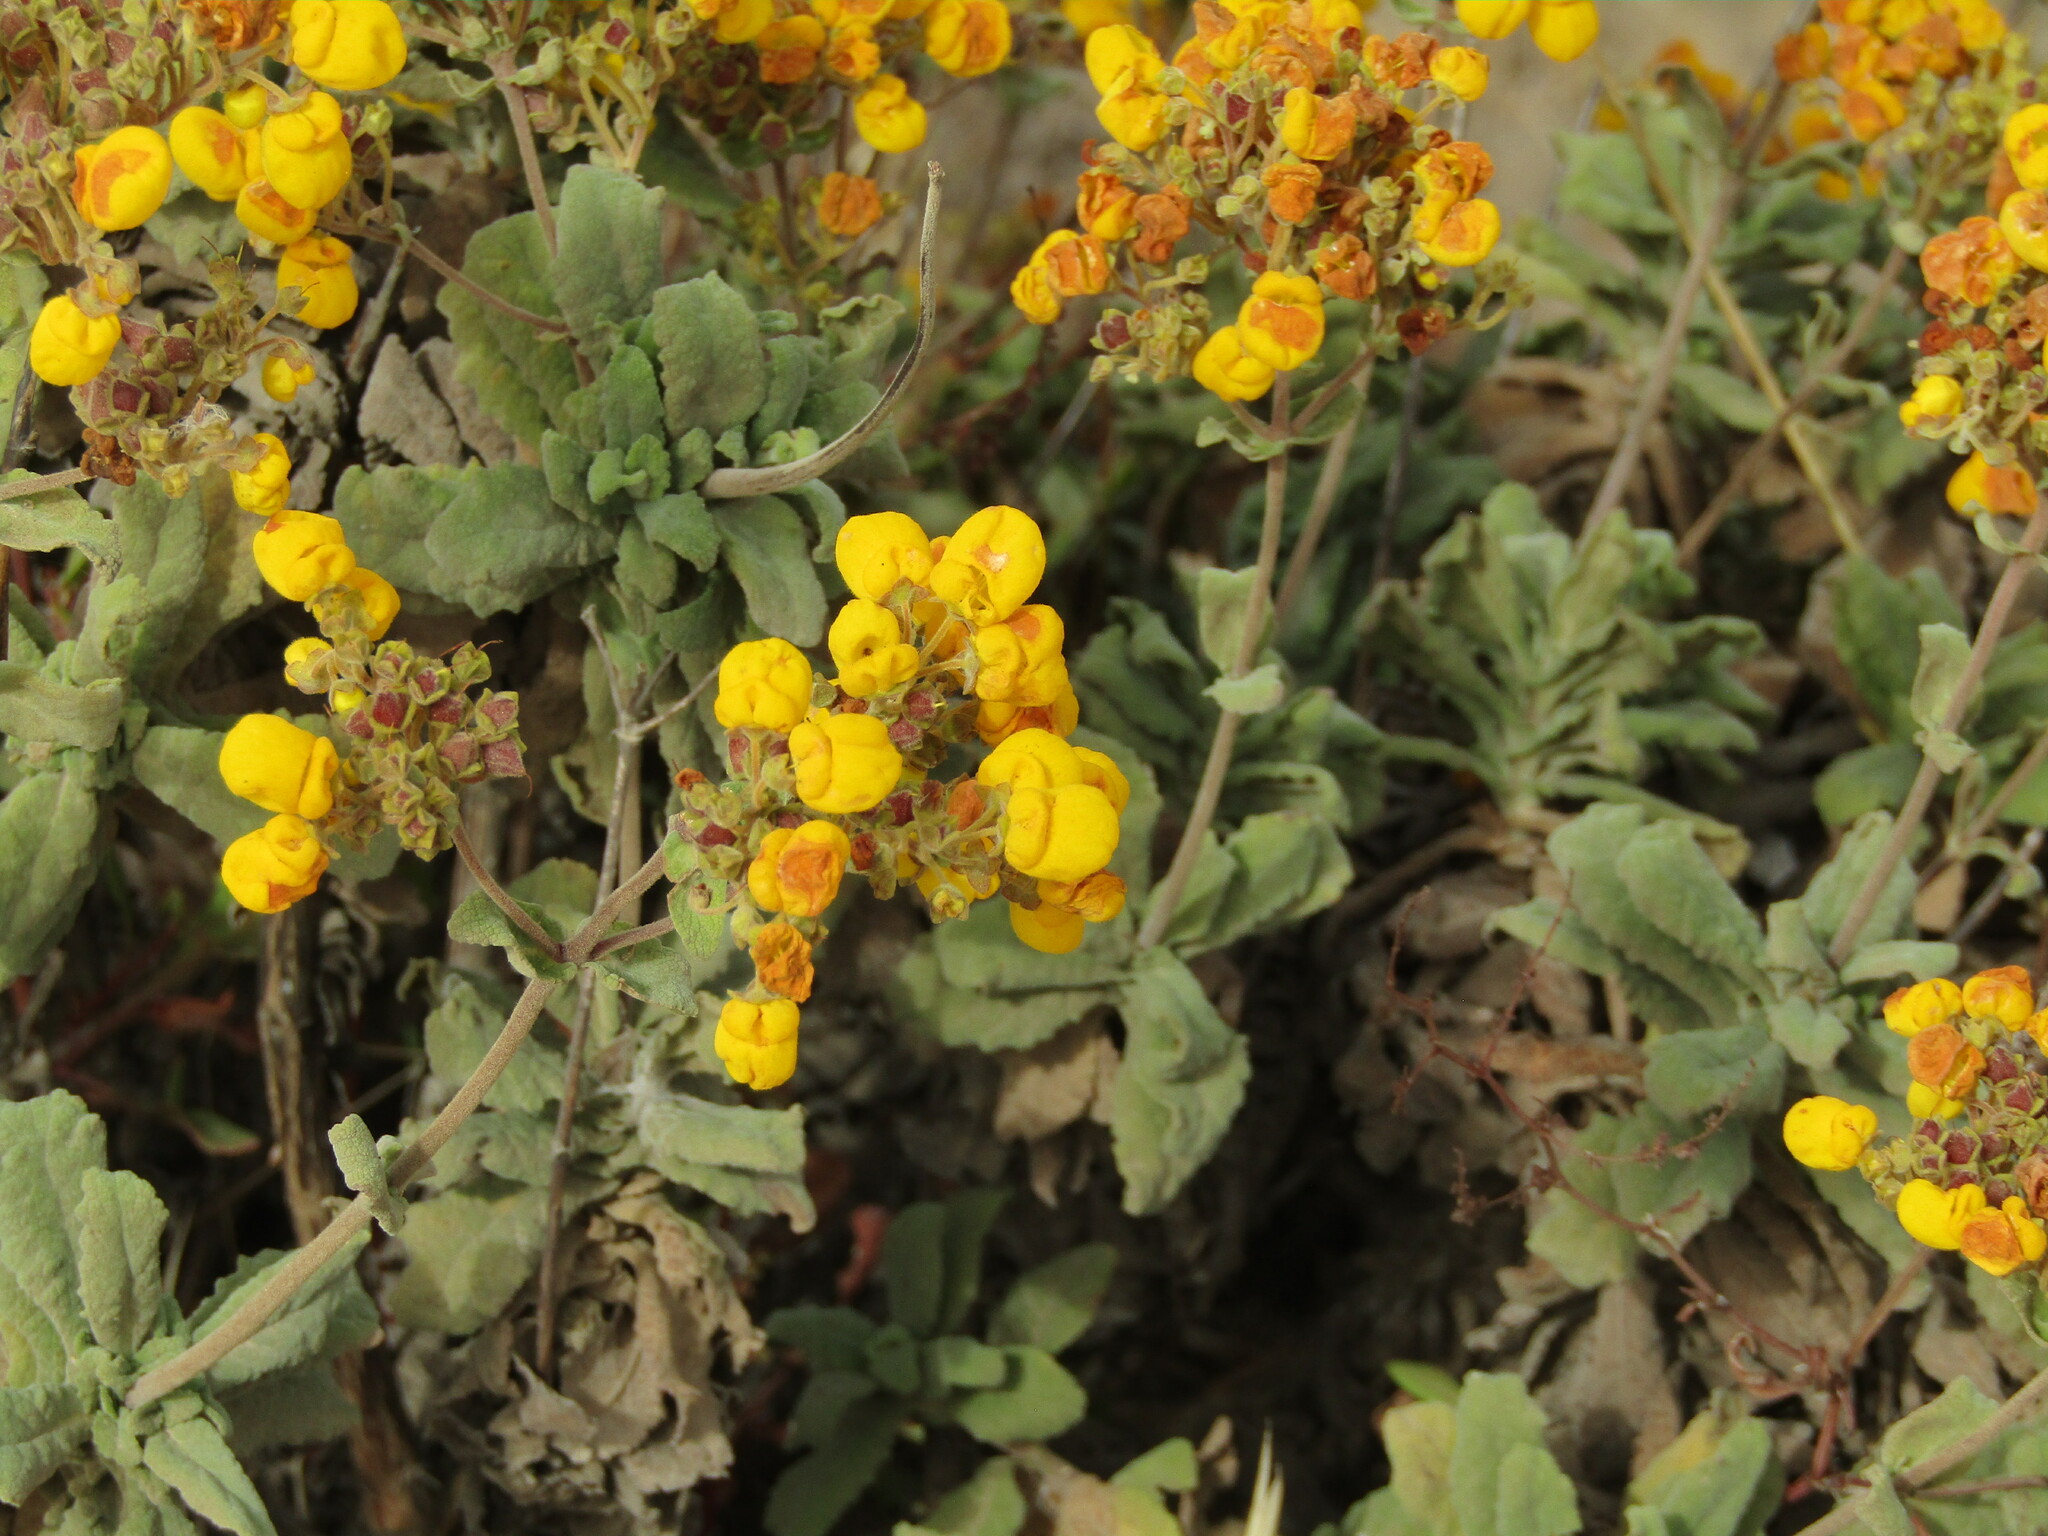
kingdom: Plantae
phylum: Tracheophyta
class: Magnoliopsida
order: Lamiales
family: Calceolariaceae
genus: Calceolaria
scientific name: Calceolaria integrifolia
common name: Bush slipperwort
